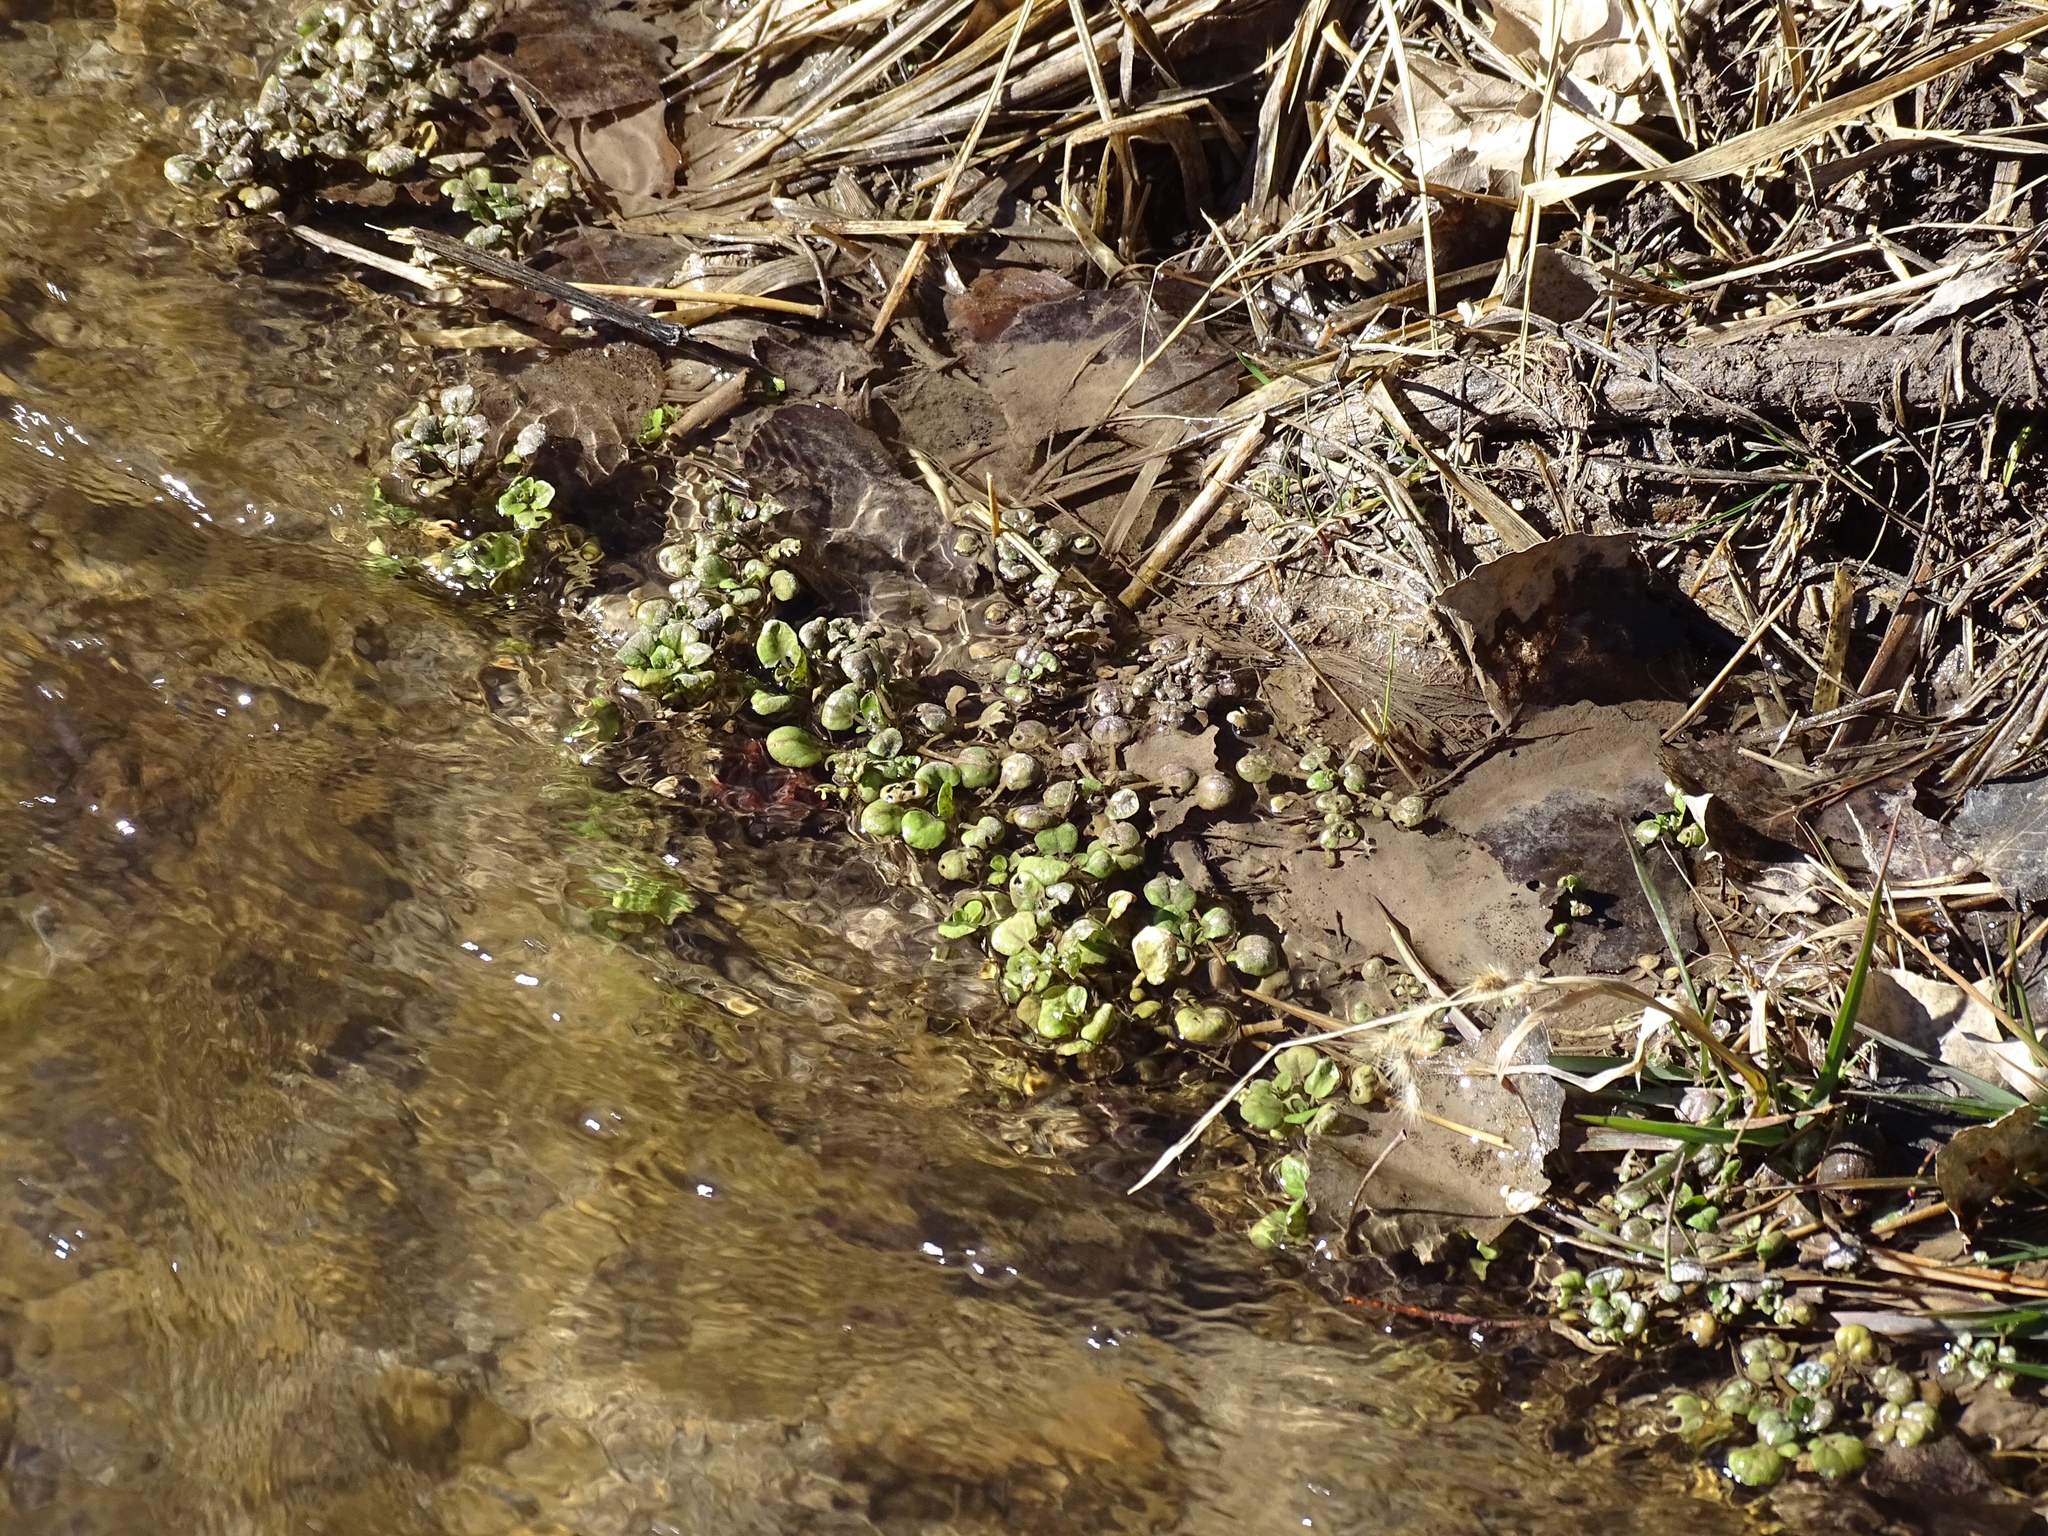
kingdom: Plantae
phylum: Tracheophyta
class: Magnoliopsida
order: Brassicales
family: Brassicaceae
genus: Nasturtium
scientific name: Nasturtium officinale
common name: Watercress
